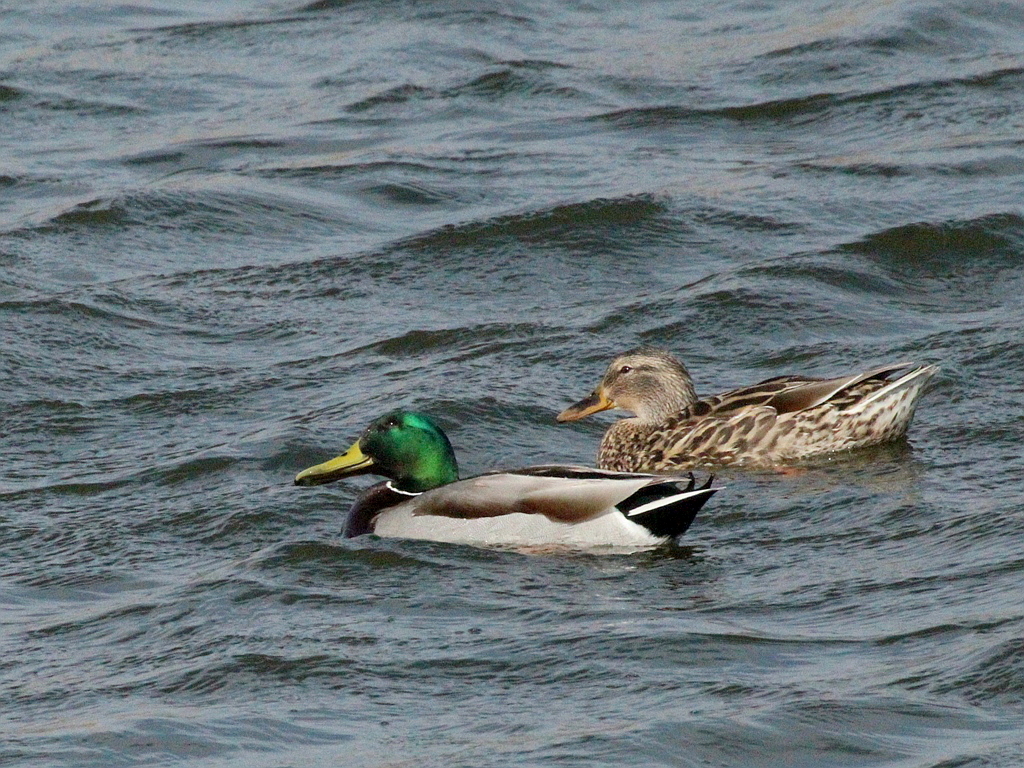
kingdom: Animalia
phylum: Chordata
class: Aves
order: Anseriformes
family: Anatidae
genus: Anas
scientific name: Anas platyrhynchos
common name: Mallard
